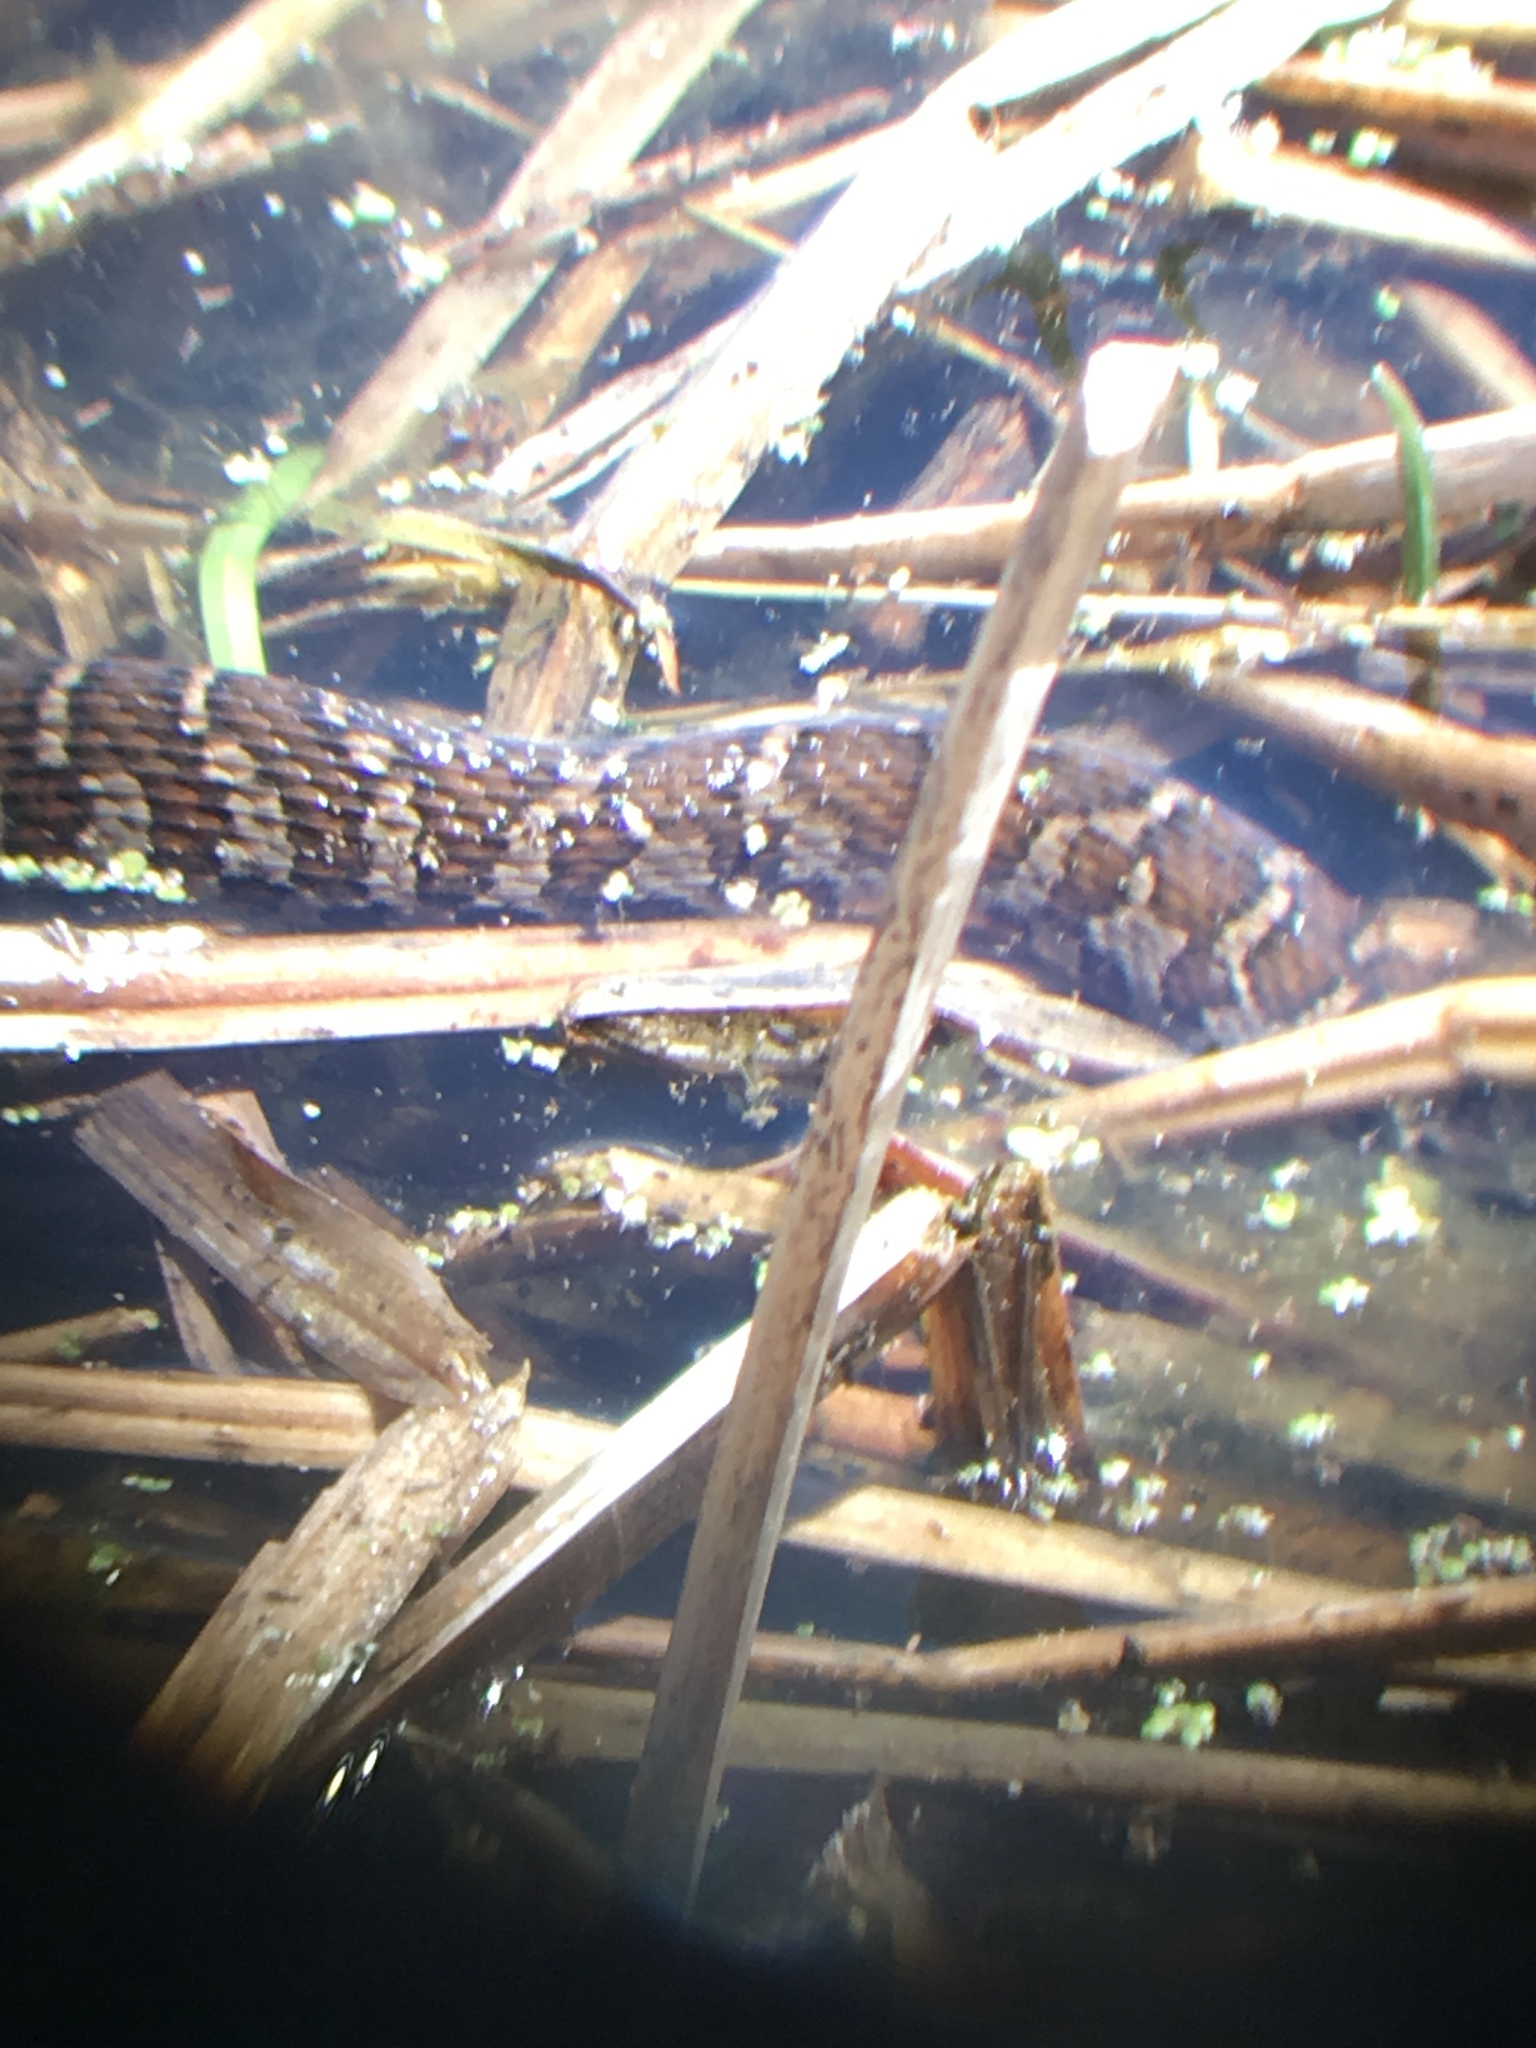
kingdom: Animalia
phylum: Chordata
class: Squamata
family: Colubridae
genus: Nerodia
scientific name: Nerodia sipedon
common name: Northern water snake
